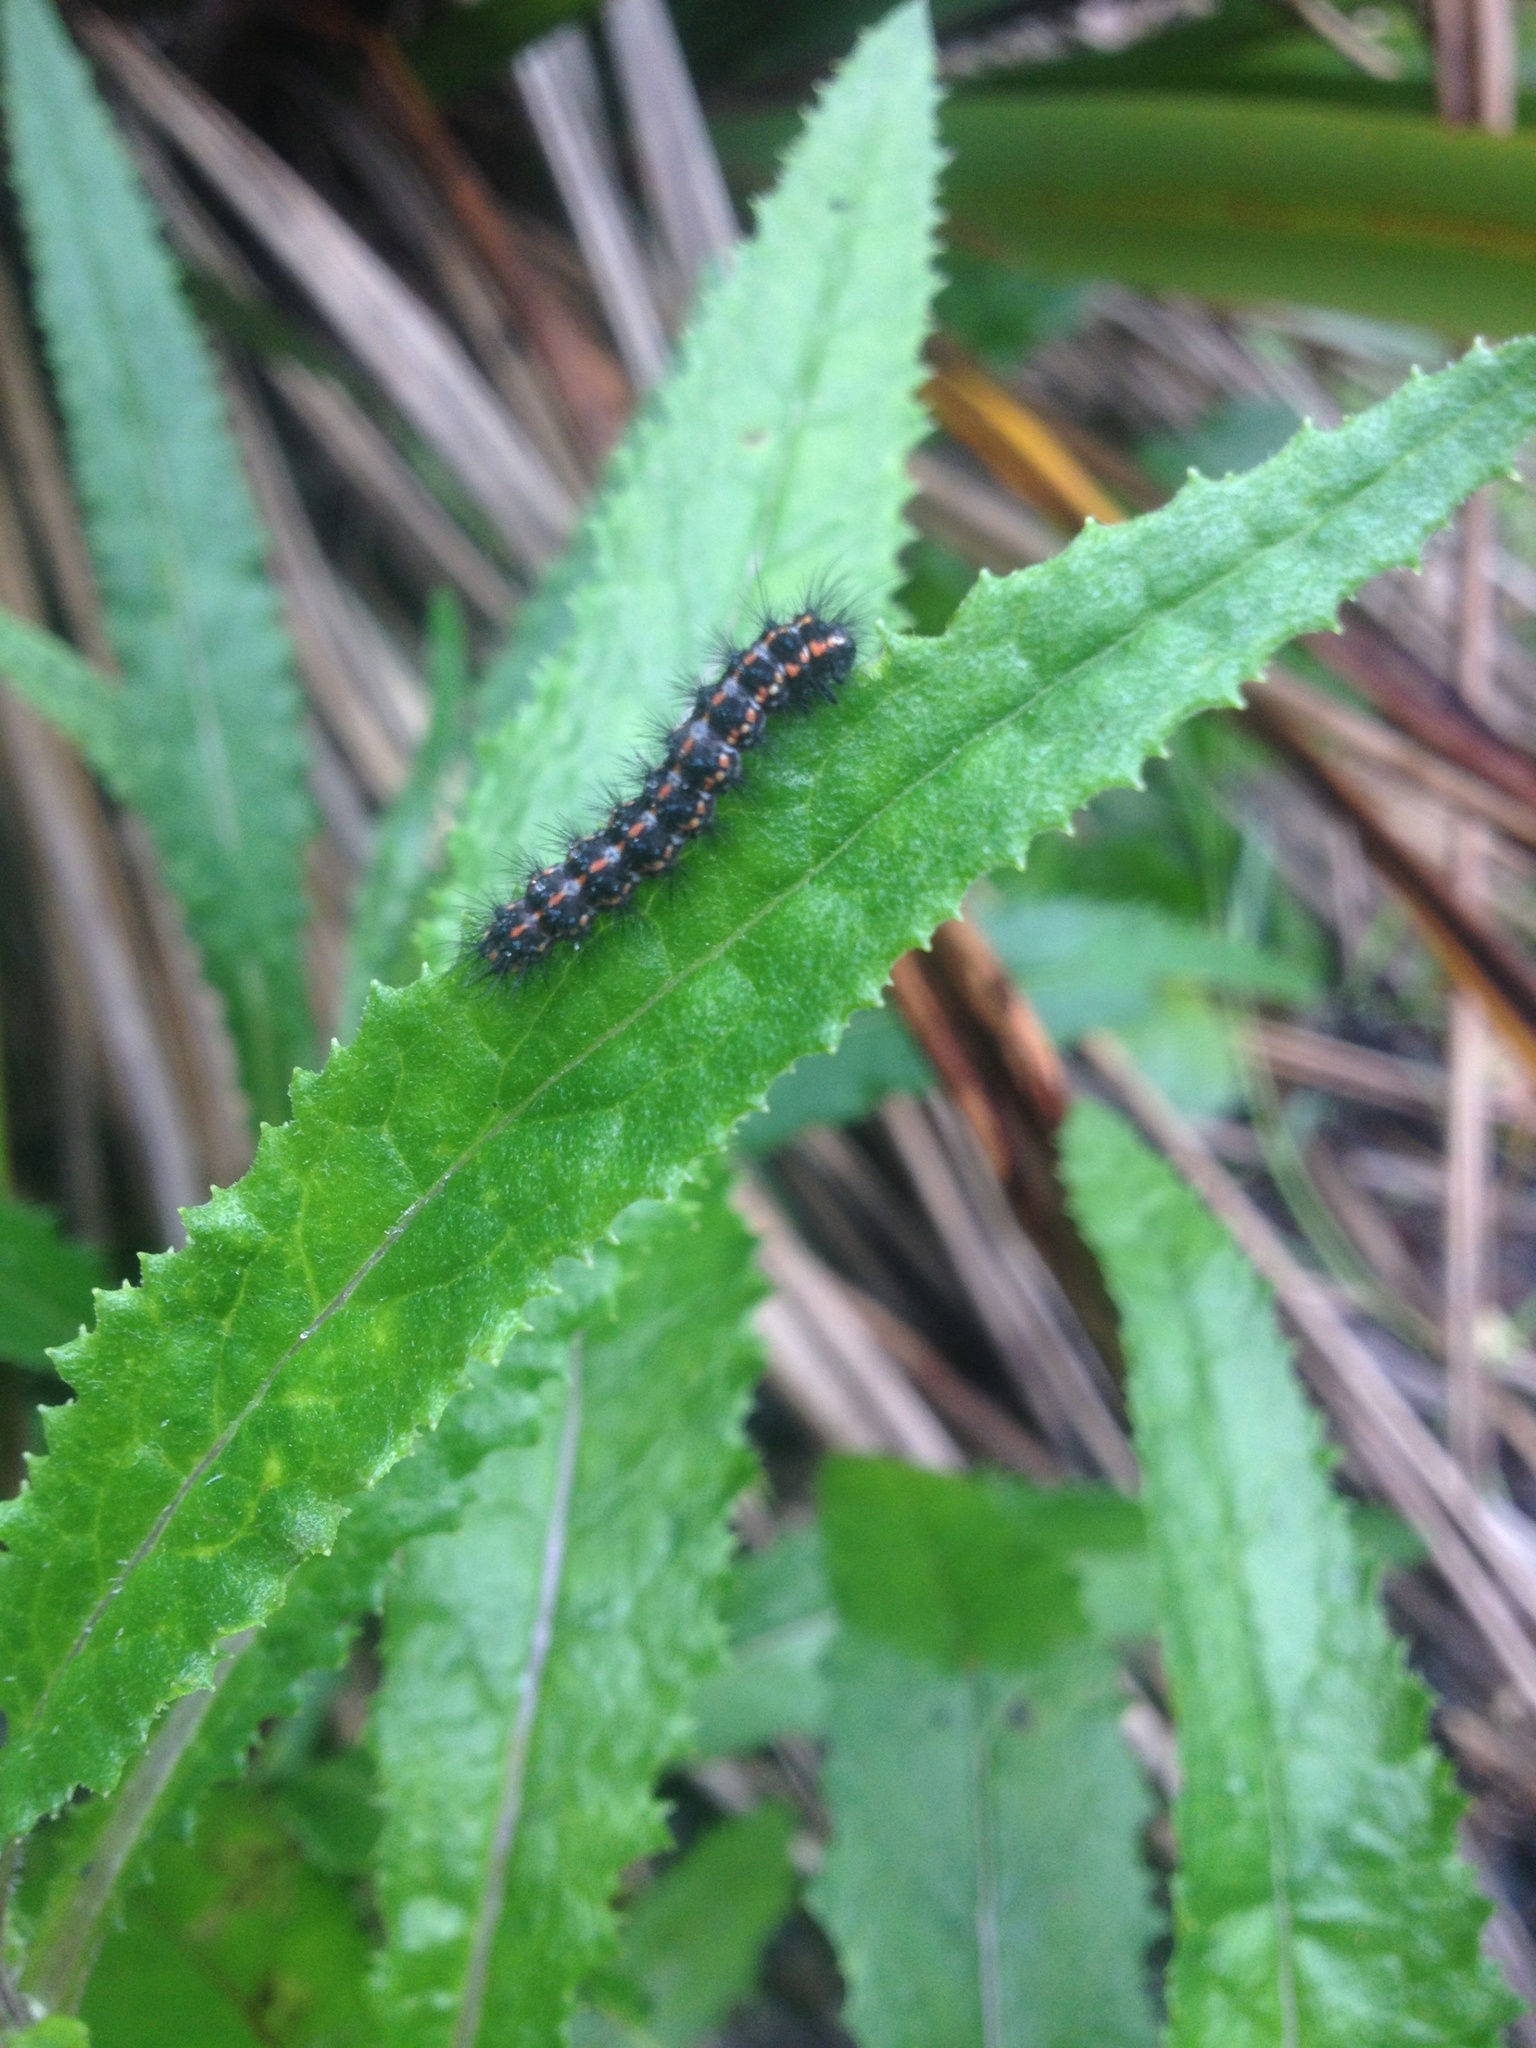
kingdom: Animalia
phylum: Arthropoda
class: Insecta
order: Lepidoptera
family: Erebidae
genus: Nyctemera
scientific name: Nyctemera annulatum
